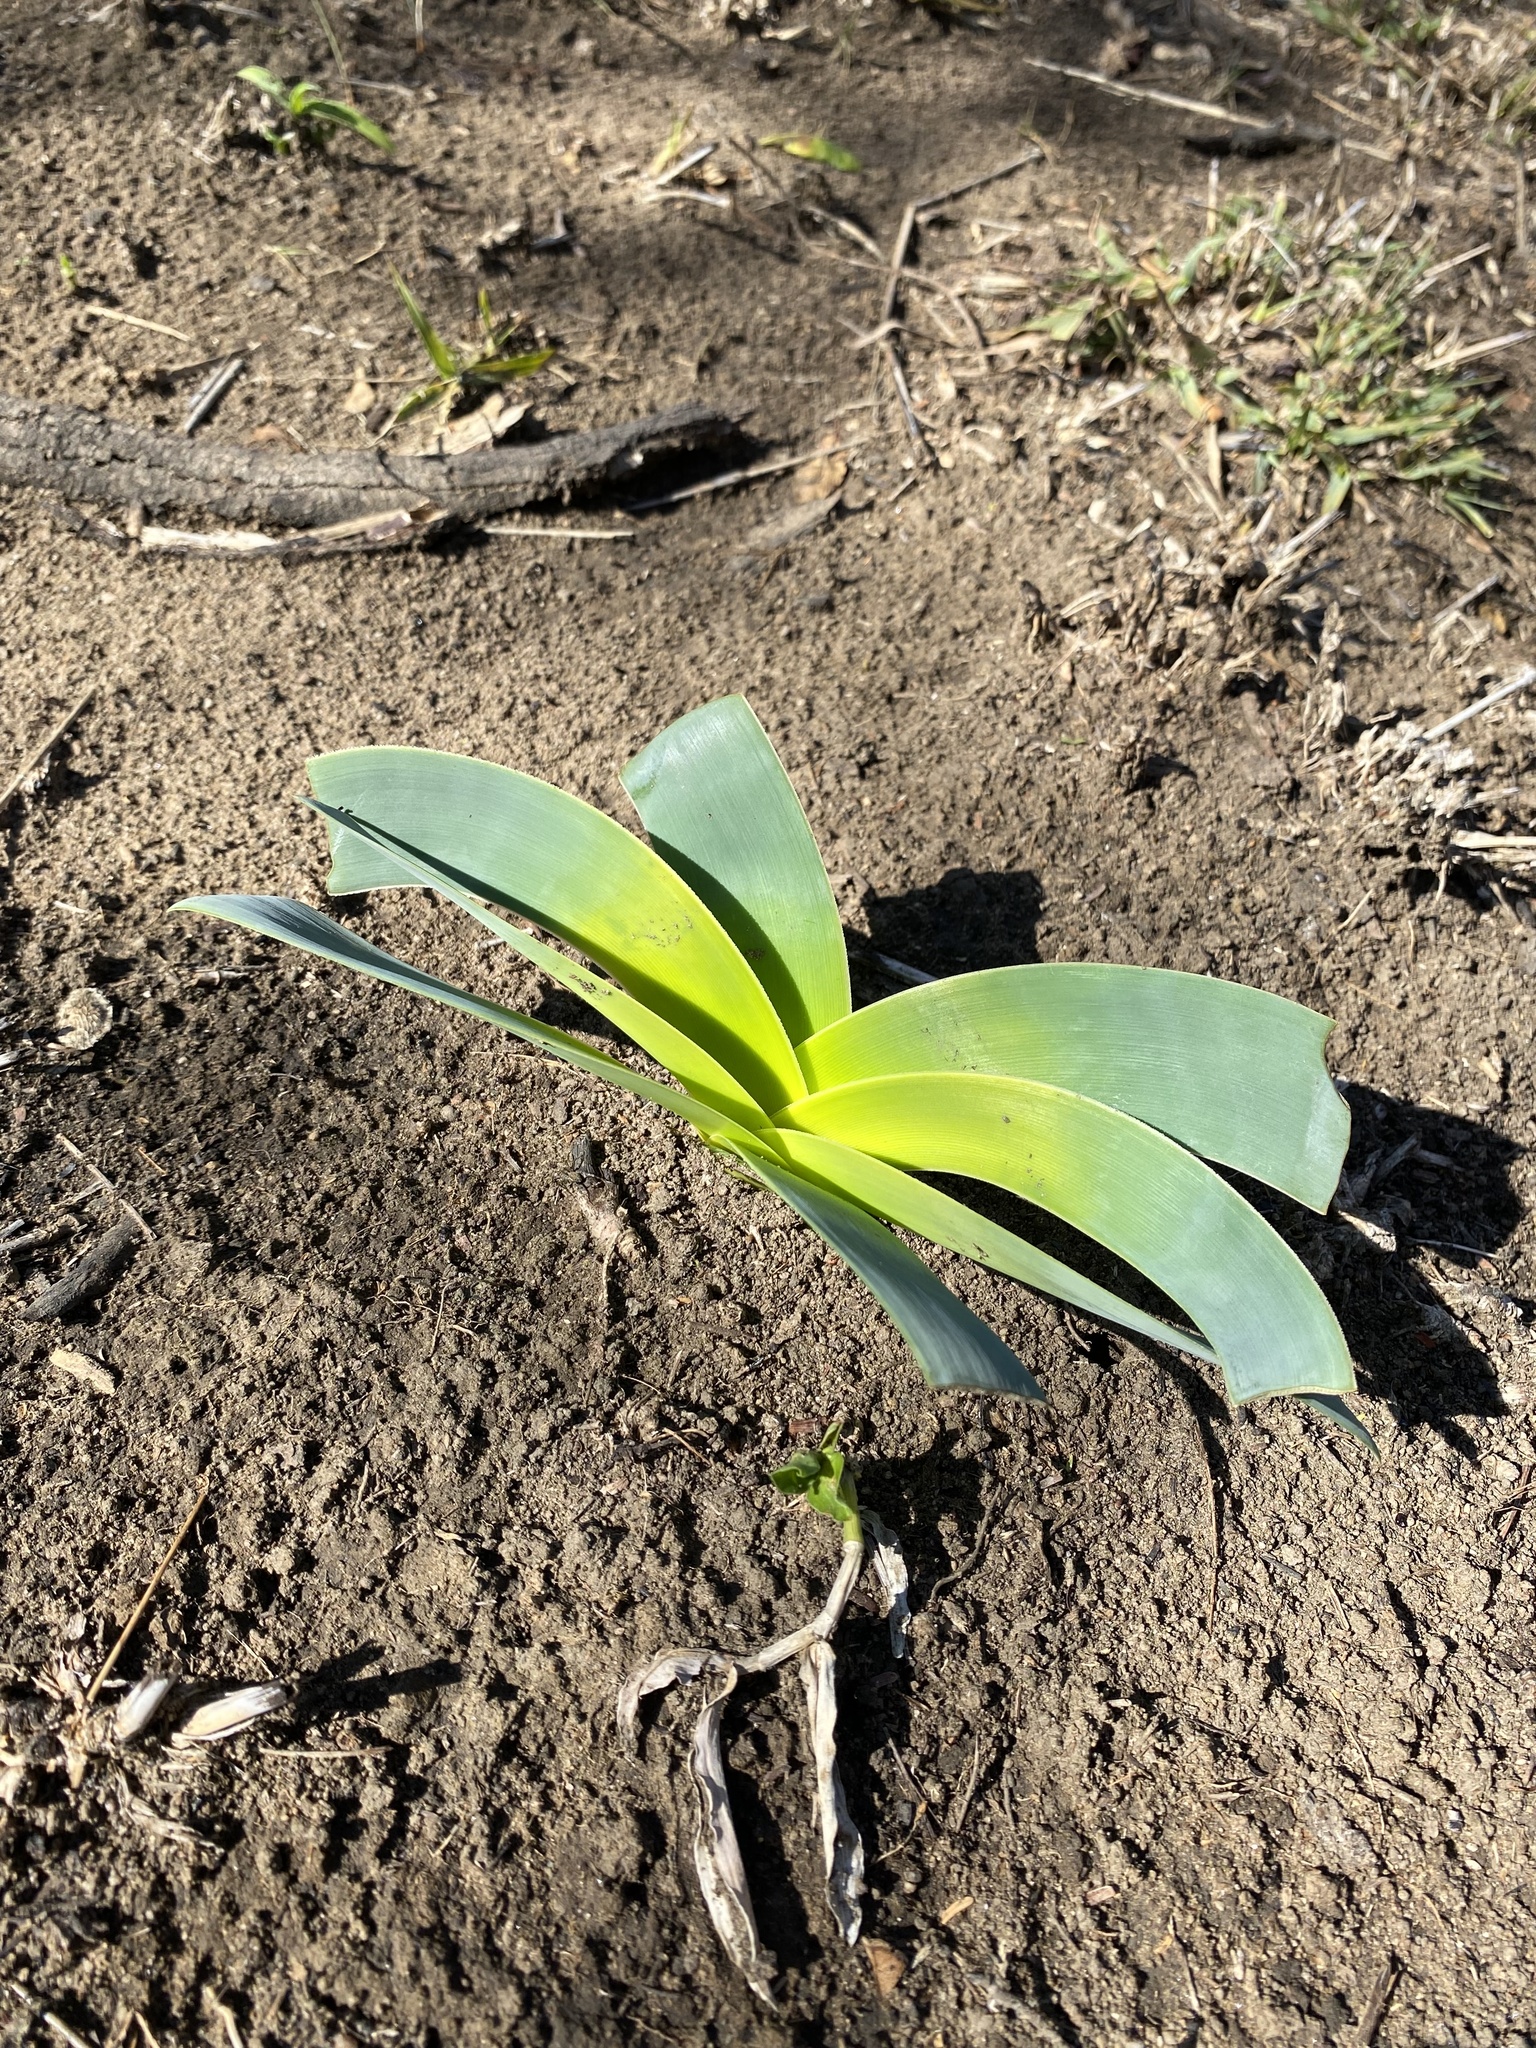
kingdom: Plantae
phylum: Tracheophyta
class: Liliopsida
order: Asparagales
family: Amaryllidaceae
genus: Ammocharis
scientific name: Ammocharis coranica
